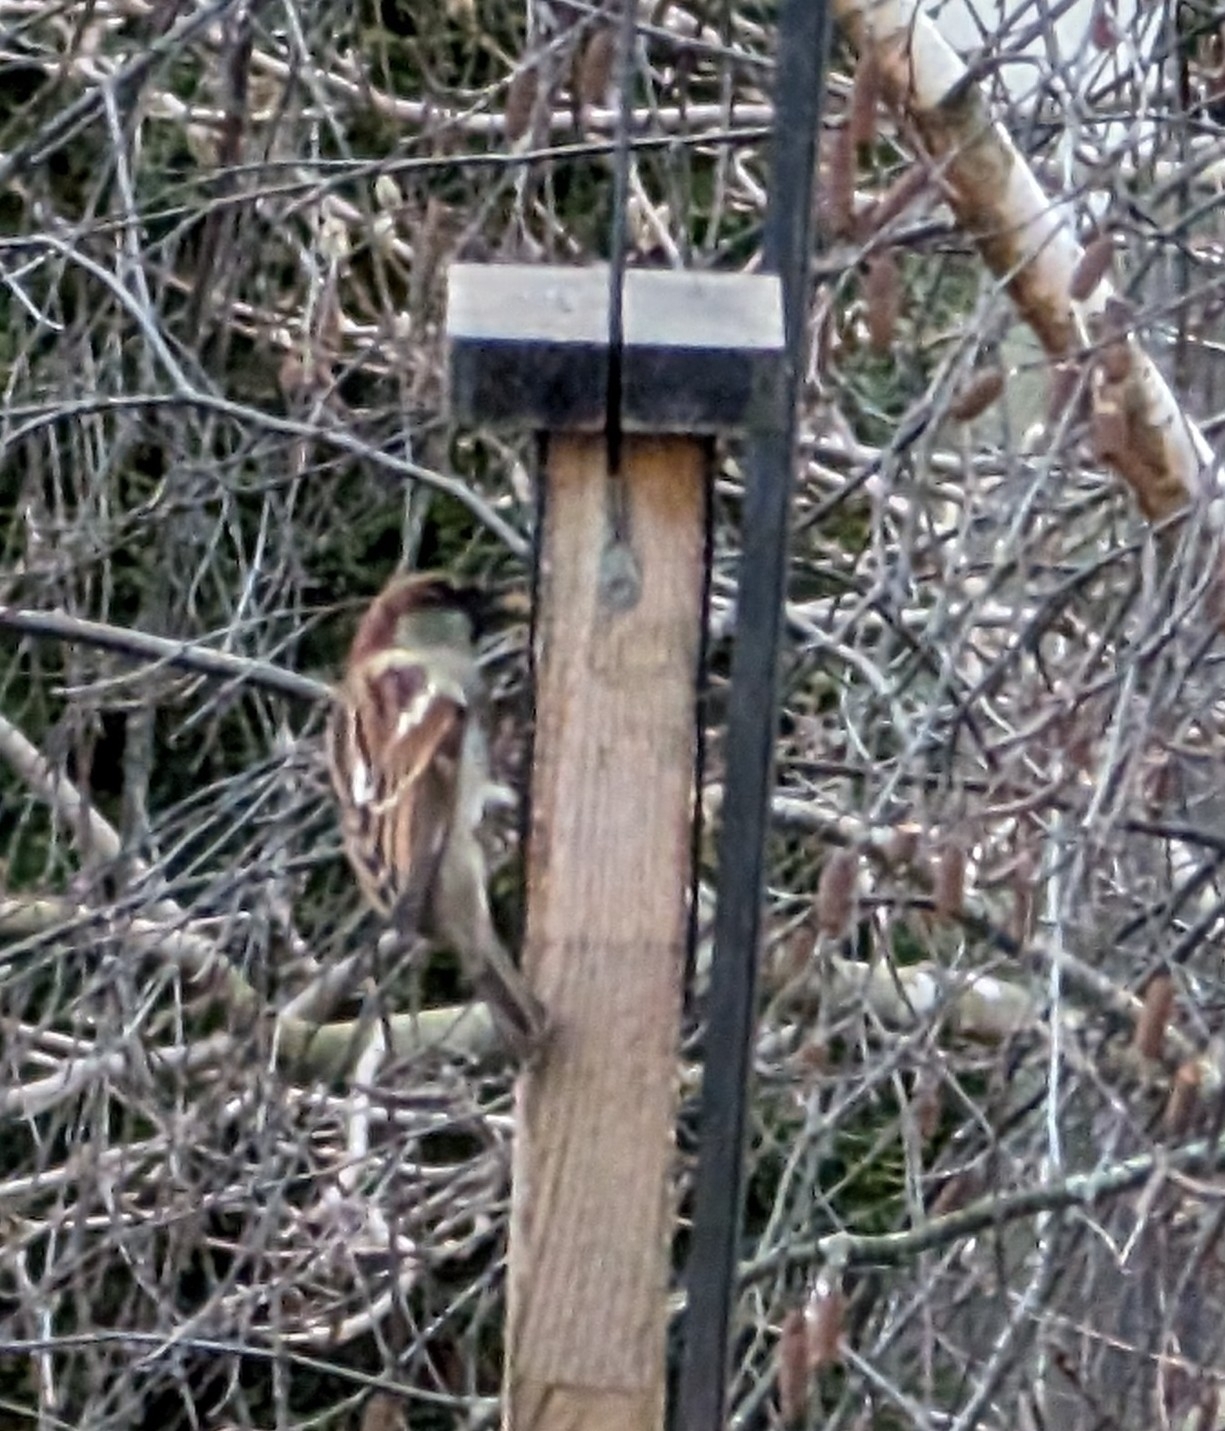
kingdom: Animalia
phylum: Chordata
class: Aves
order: Passeriformes
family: Passeridae
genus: Passer
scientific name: Passer domesticus
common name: House sparrow
